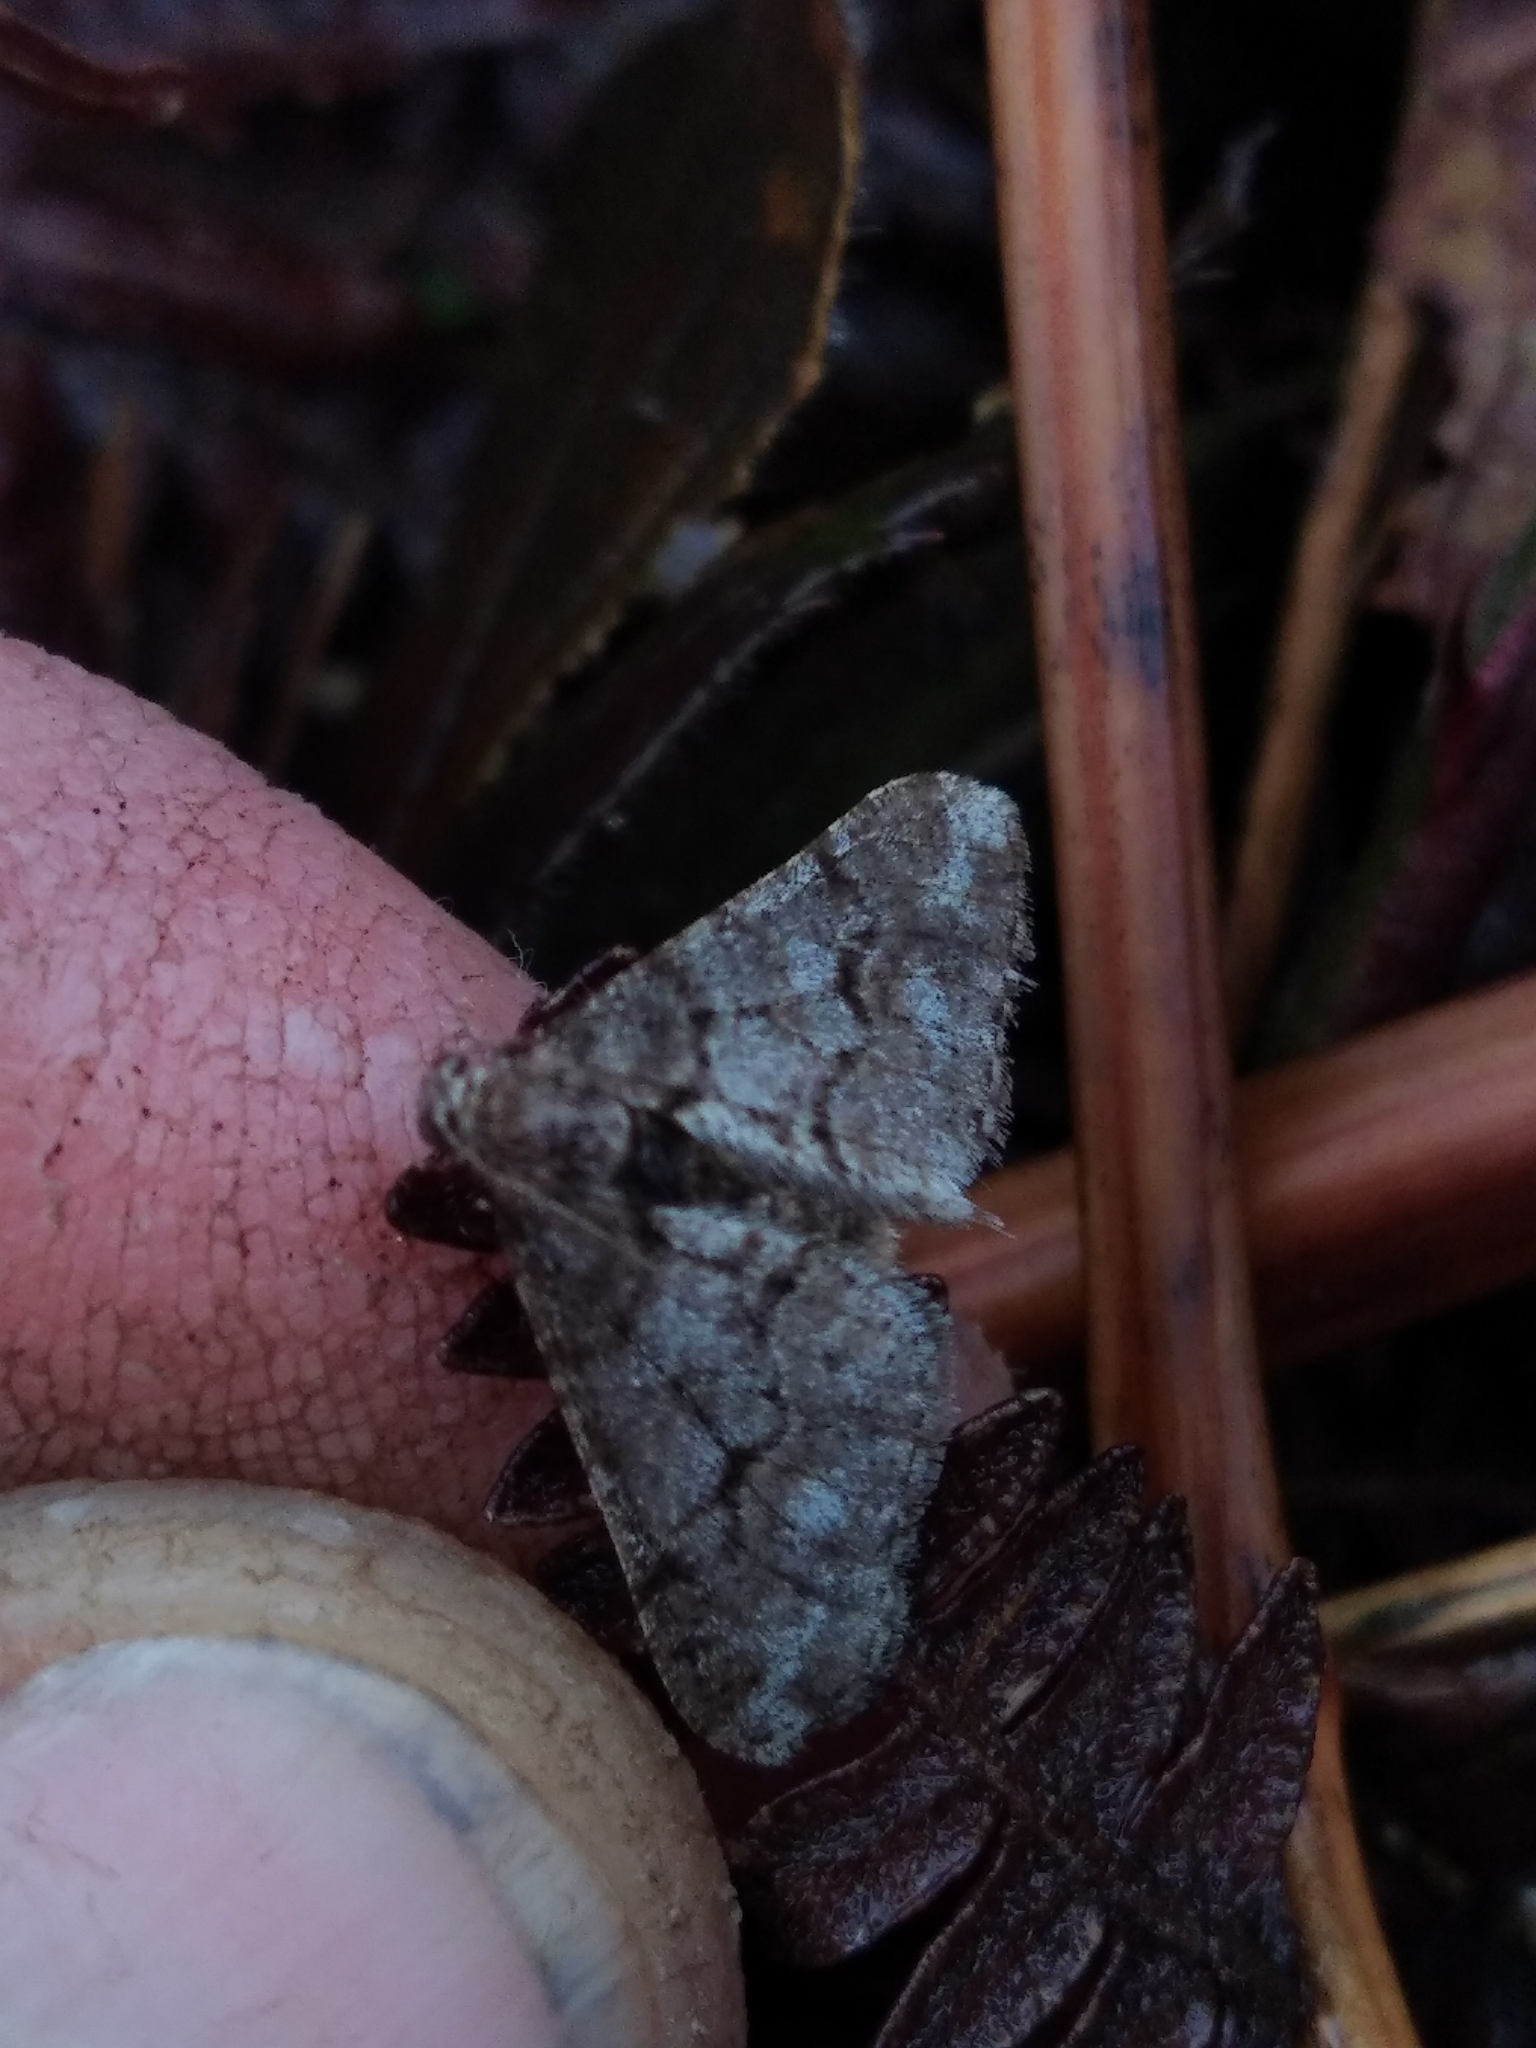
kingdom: Animalia
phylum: Arthropoda
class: Insecta
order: Lepidoptera
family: Geometridae
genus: Agriopis
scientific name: Agriopis leucophaearia
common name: Spring usher
